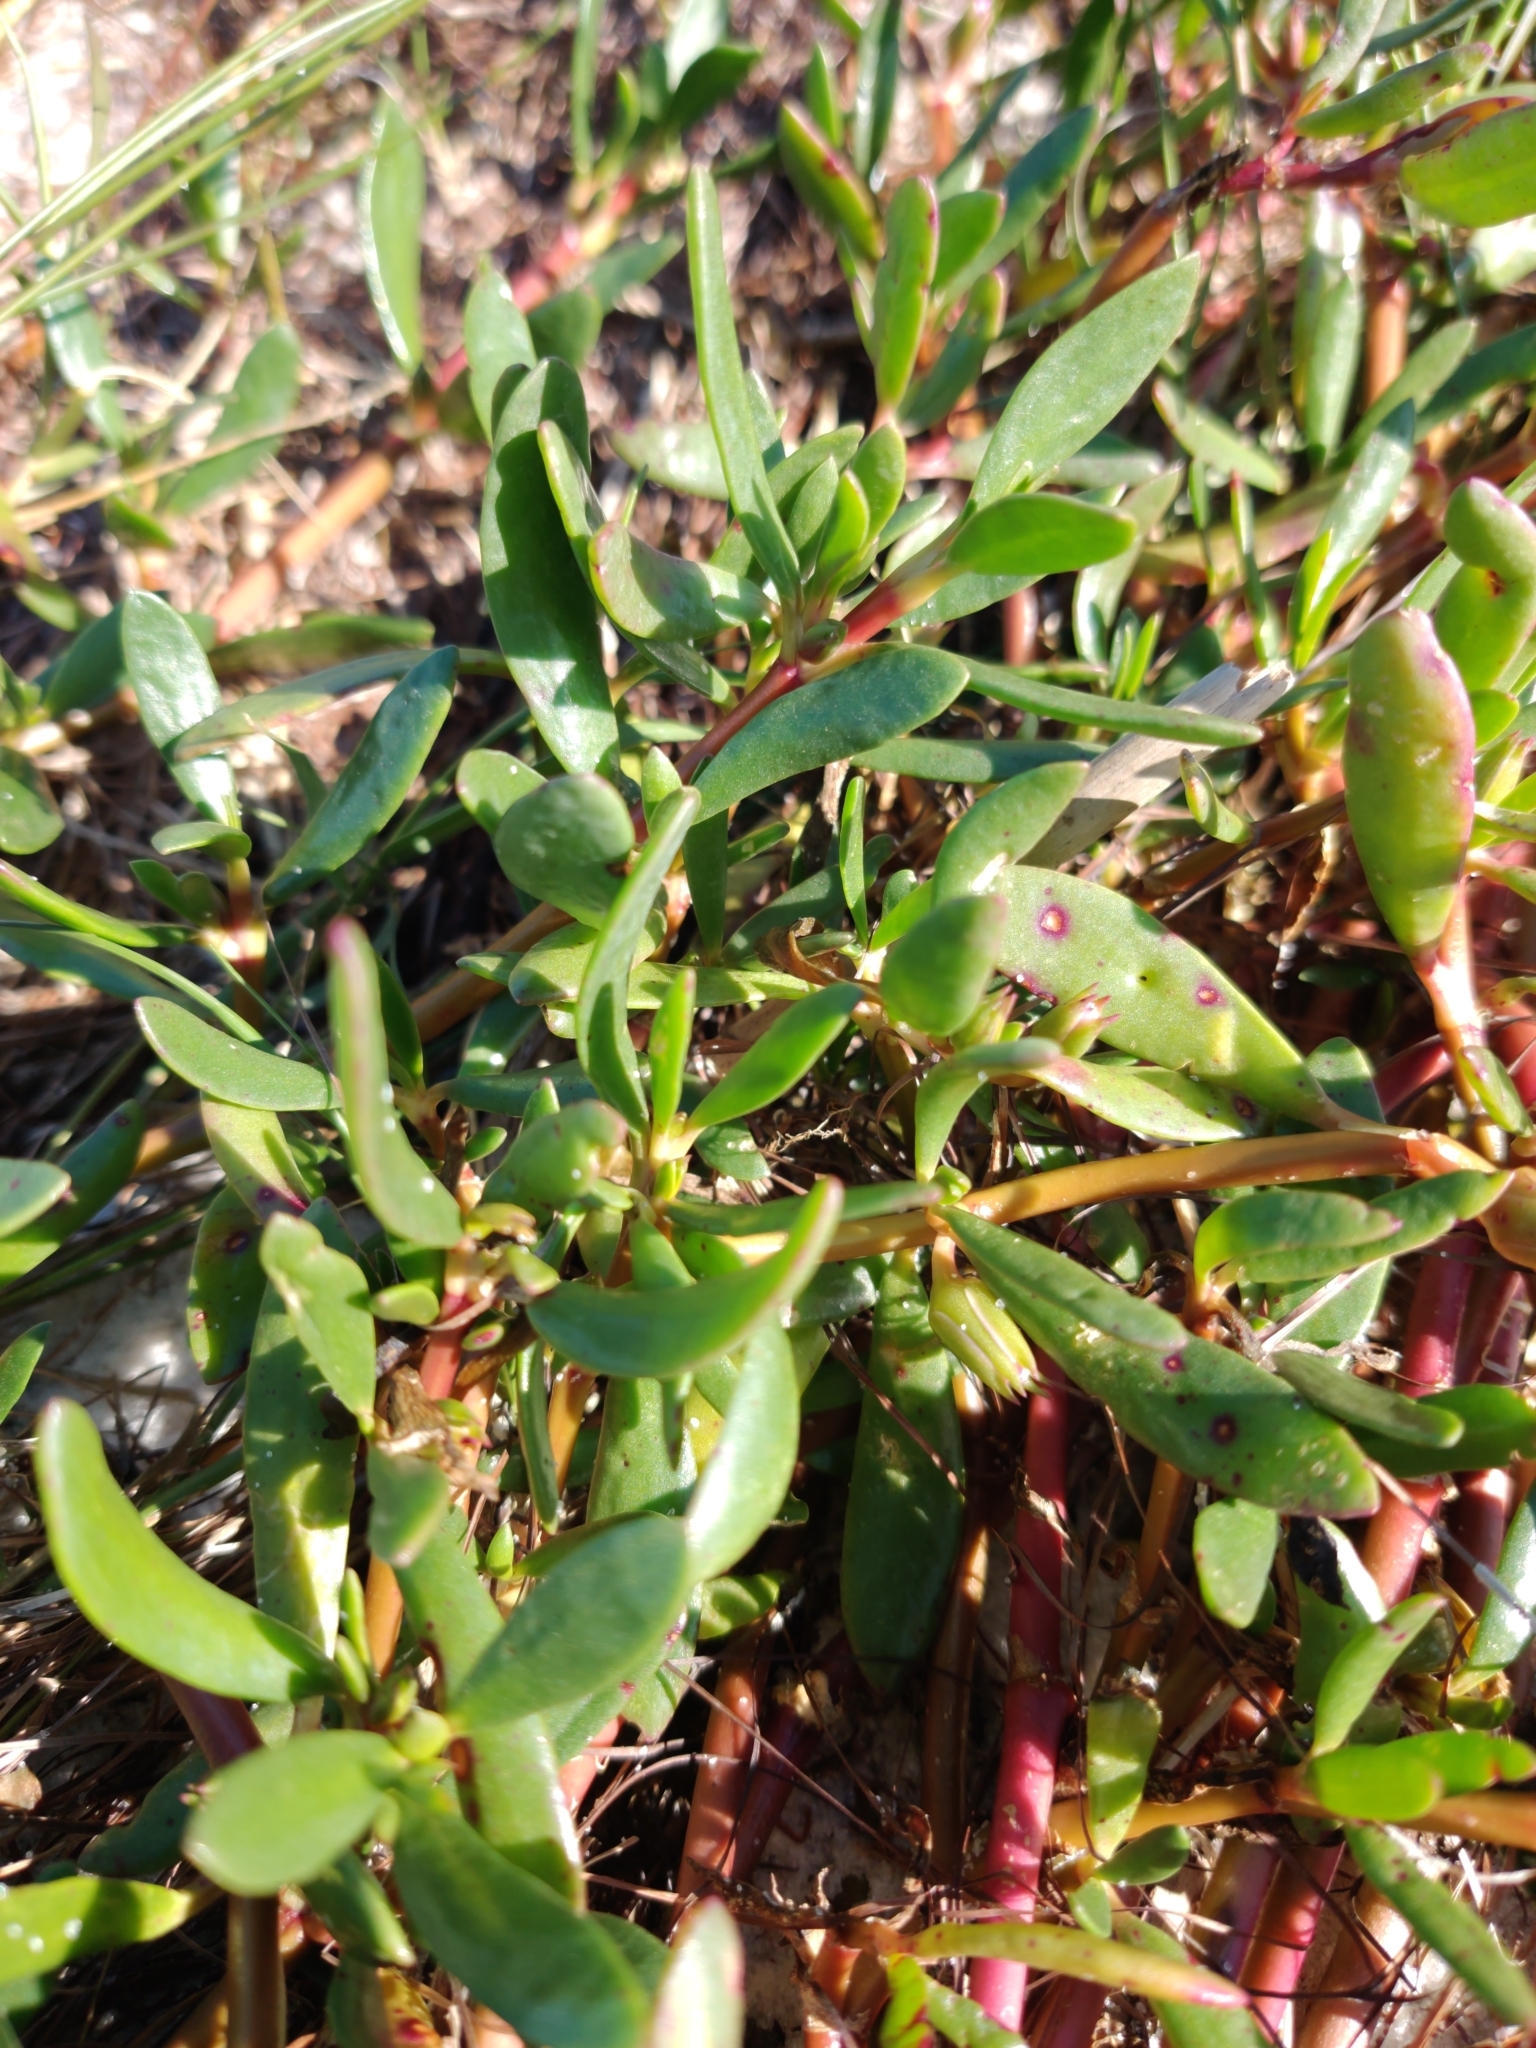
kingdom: Plantae
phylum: Tracheophyta
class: Magnoliopsida
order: Caryophyllales
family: Aizoaceae
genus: Sesuvium
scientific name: Sesuvium portulacastrum
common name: Sea-purslane
